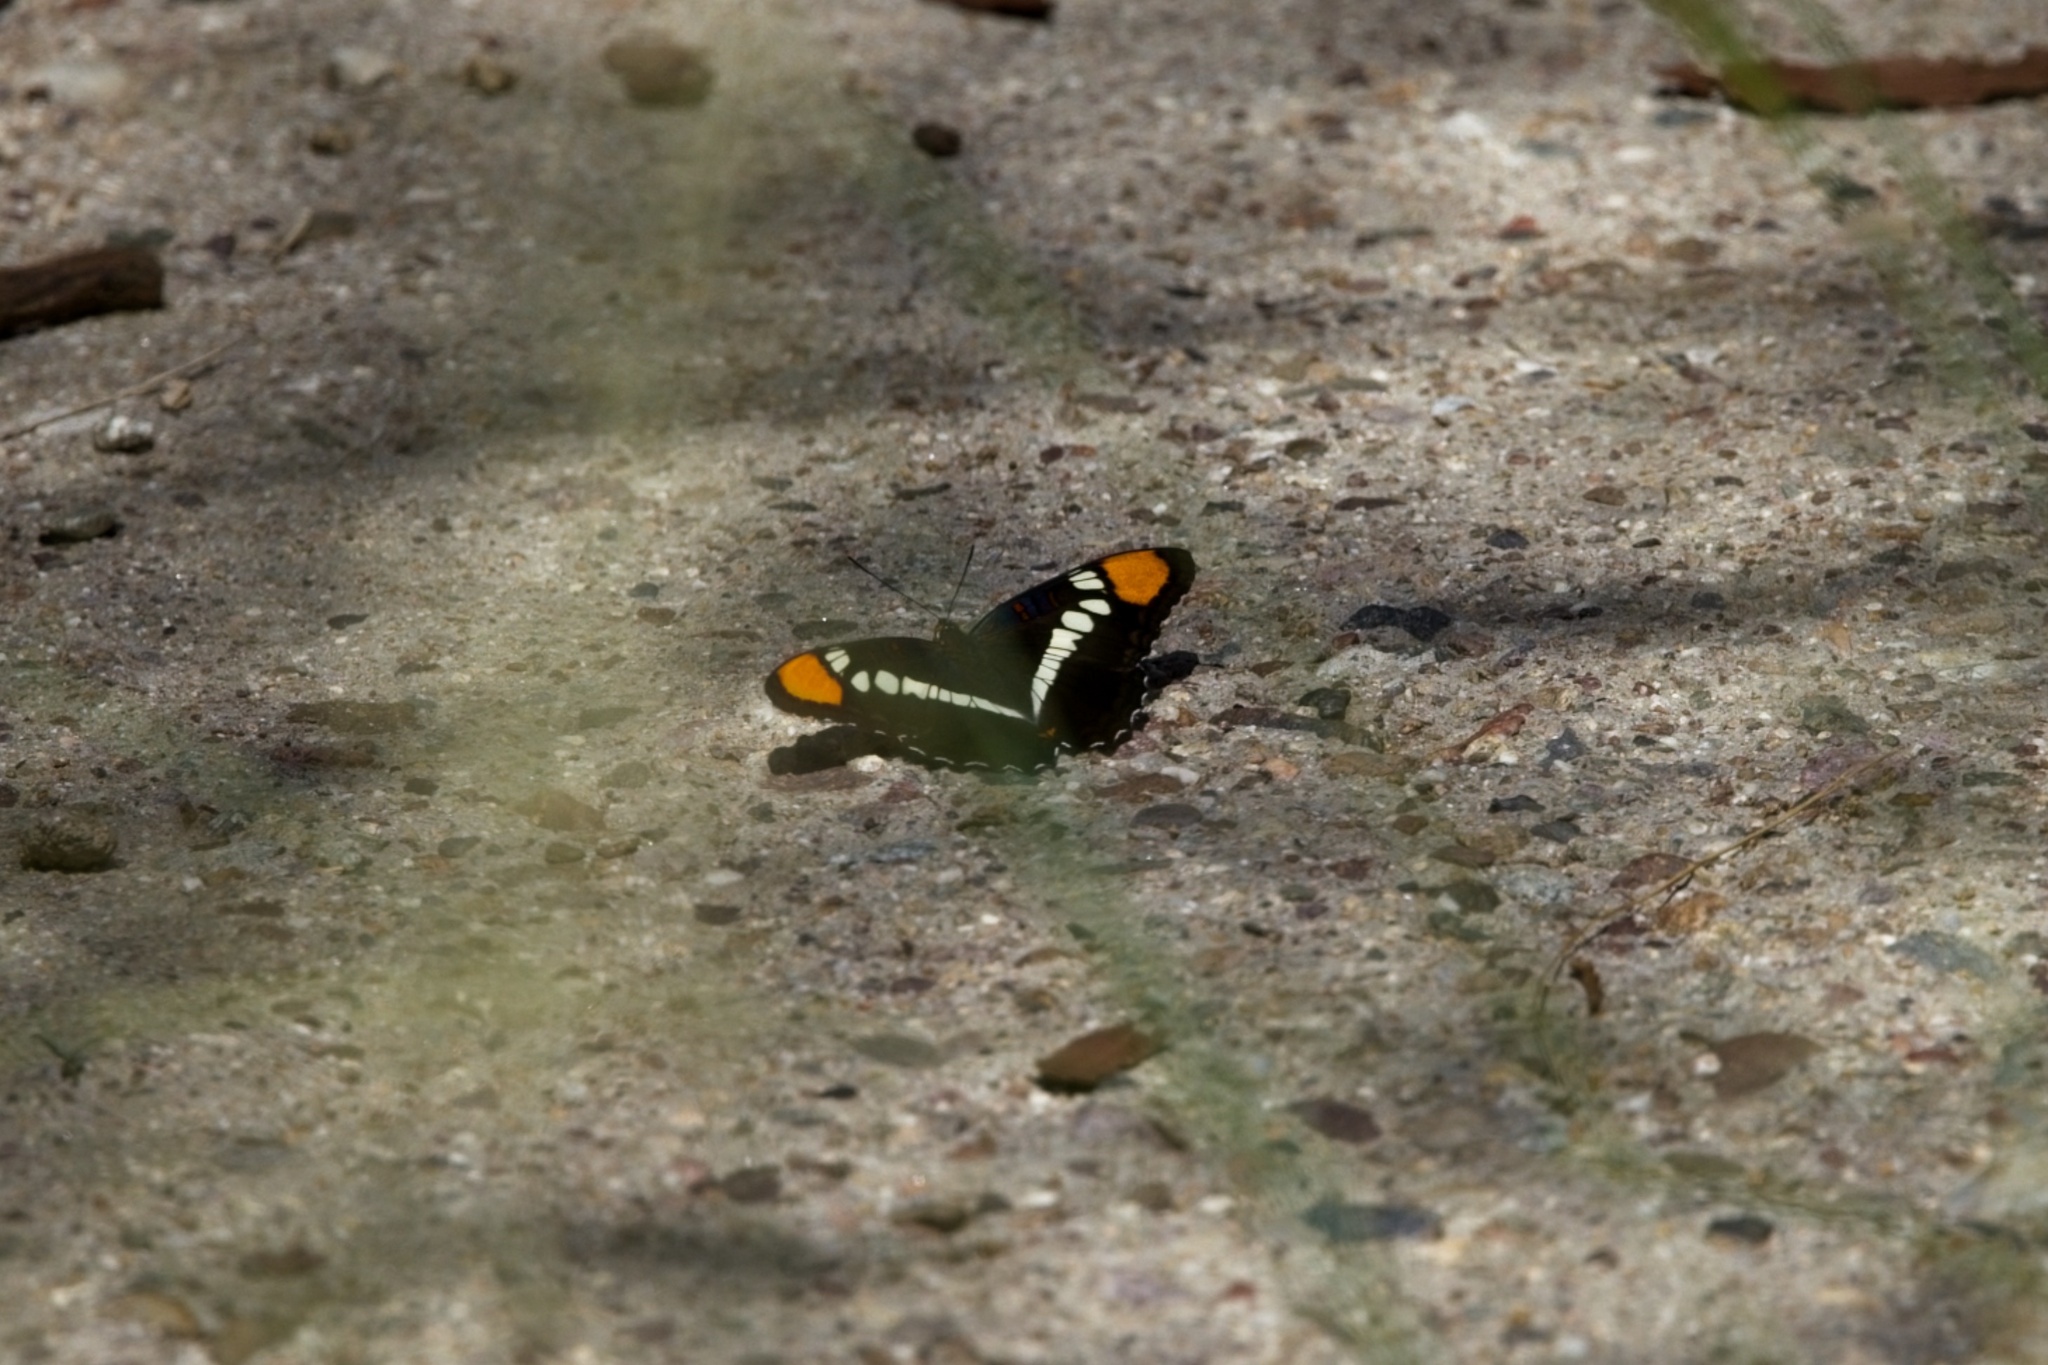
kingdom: Animalia
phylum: Arthropoda
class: Insecta
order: Lepidoptera
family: Nymphalidae
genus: Limenitis
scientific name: Limenitis bredowii
